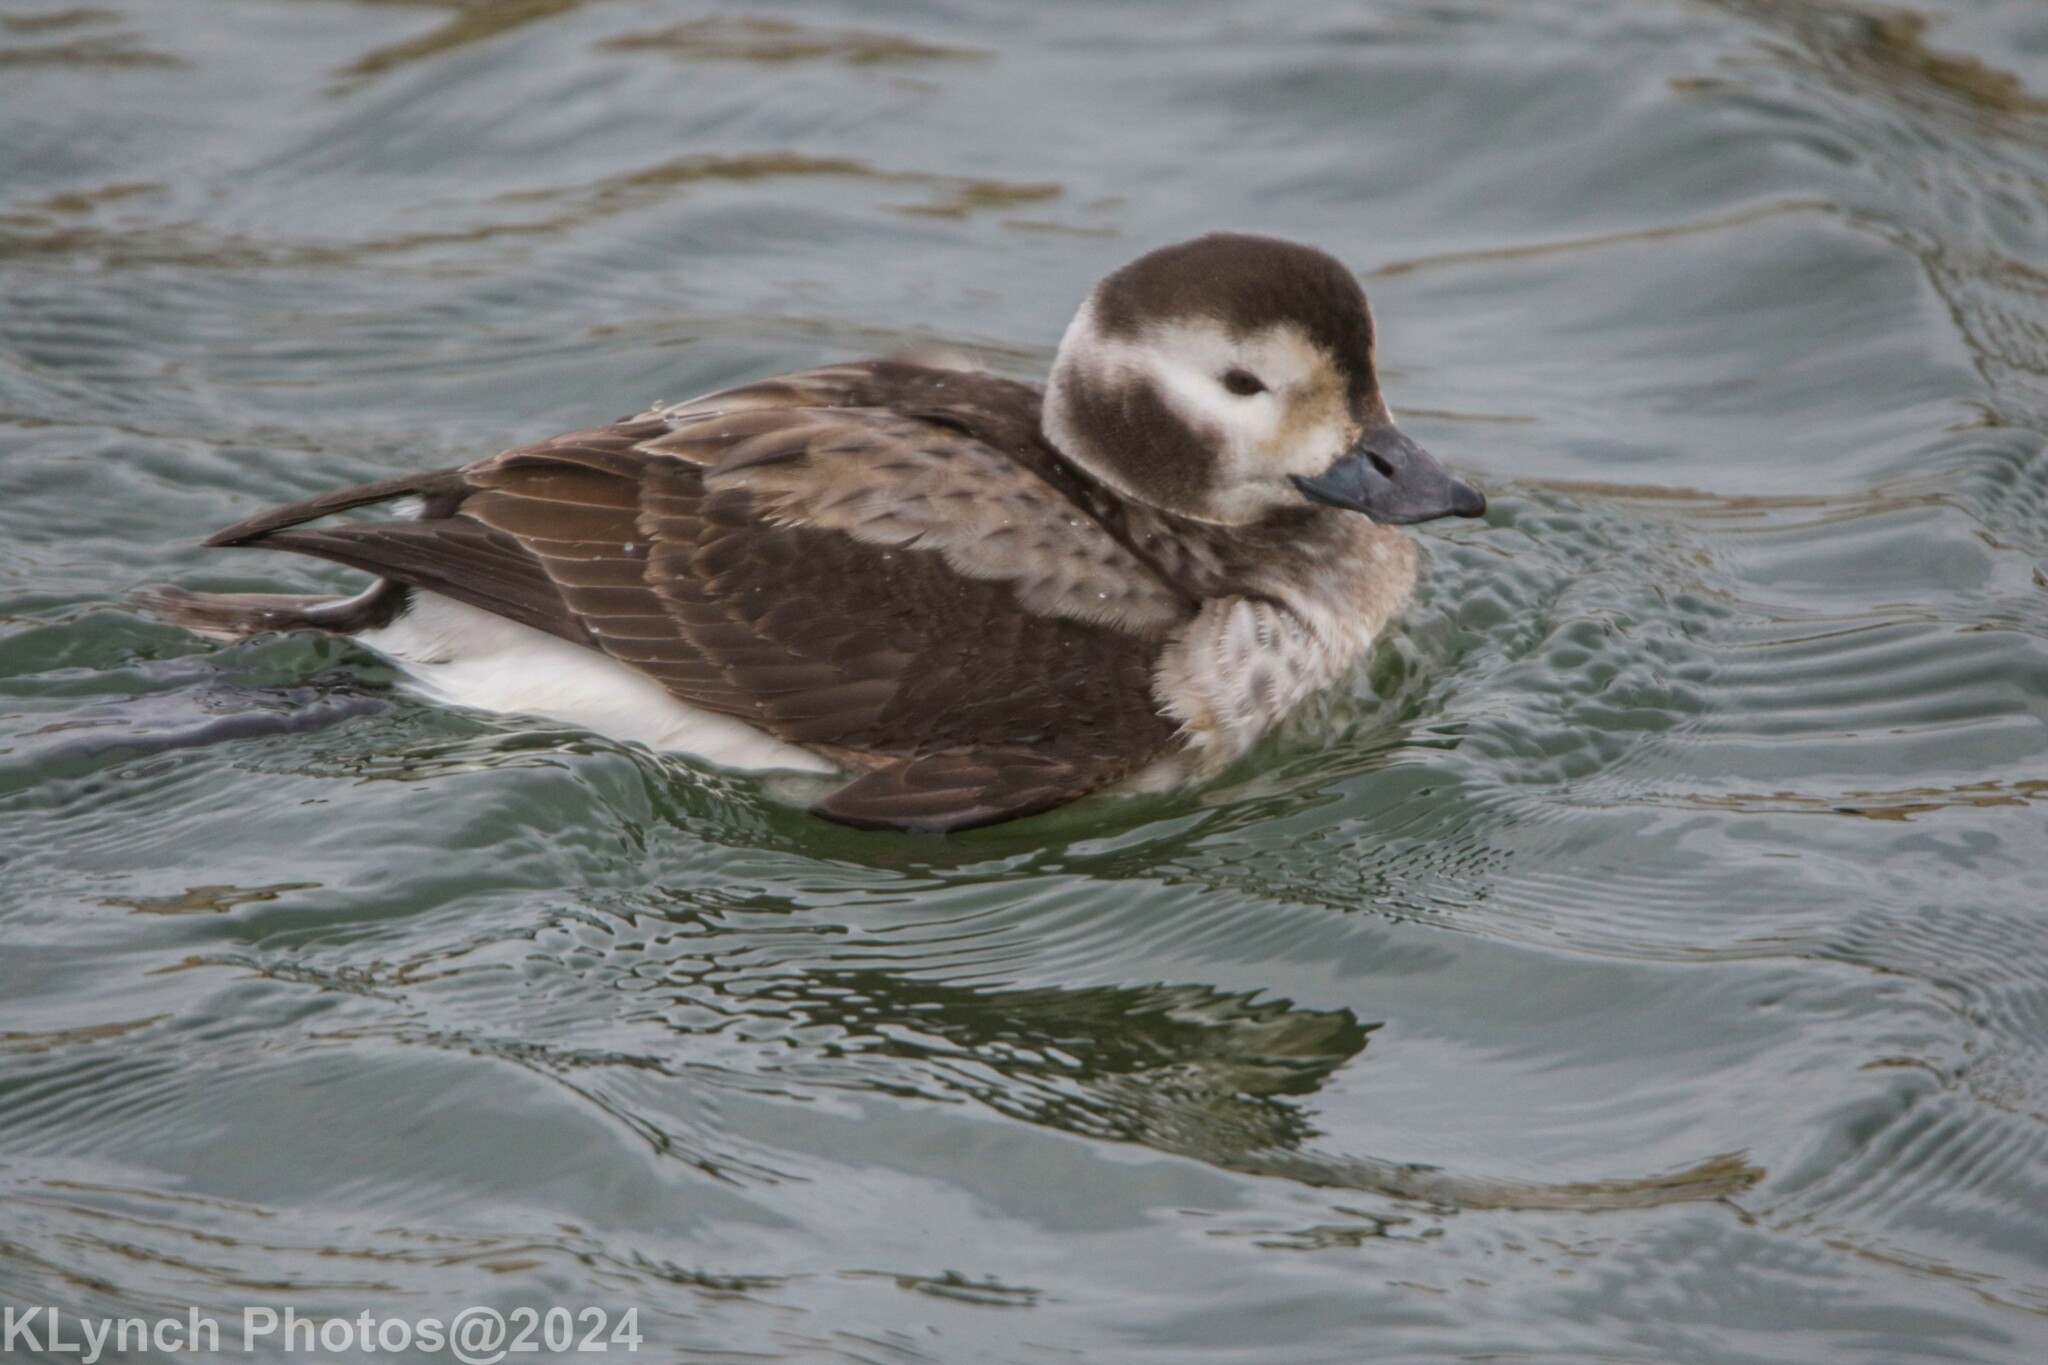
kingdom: Animalia
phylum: Chordata
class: Aves
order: Anseriformes
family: Anatidae
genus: Clangula
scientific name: Clangula hyemalis
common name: Long-tailed duck
